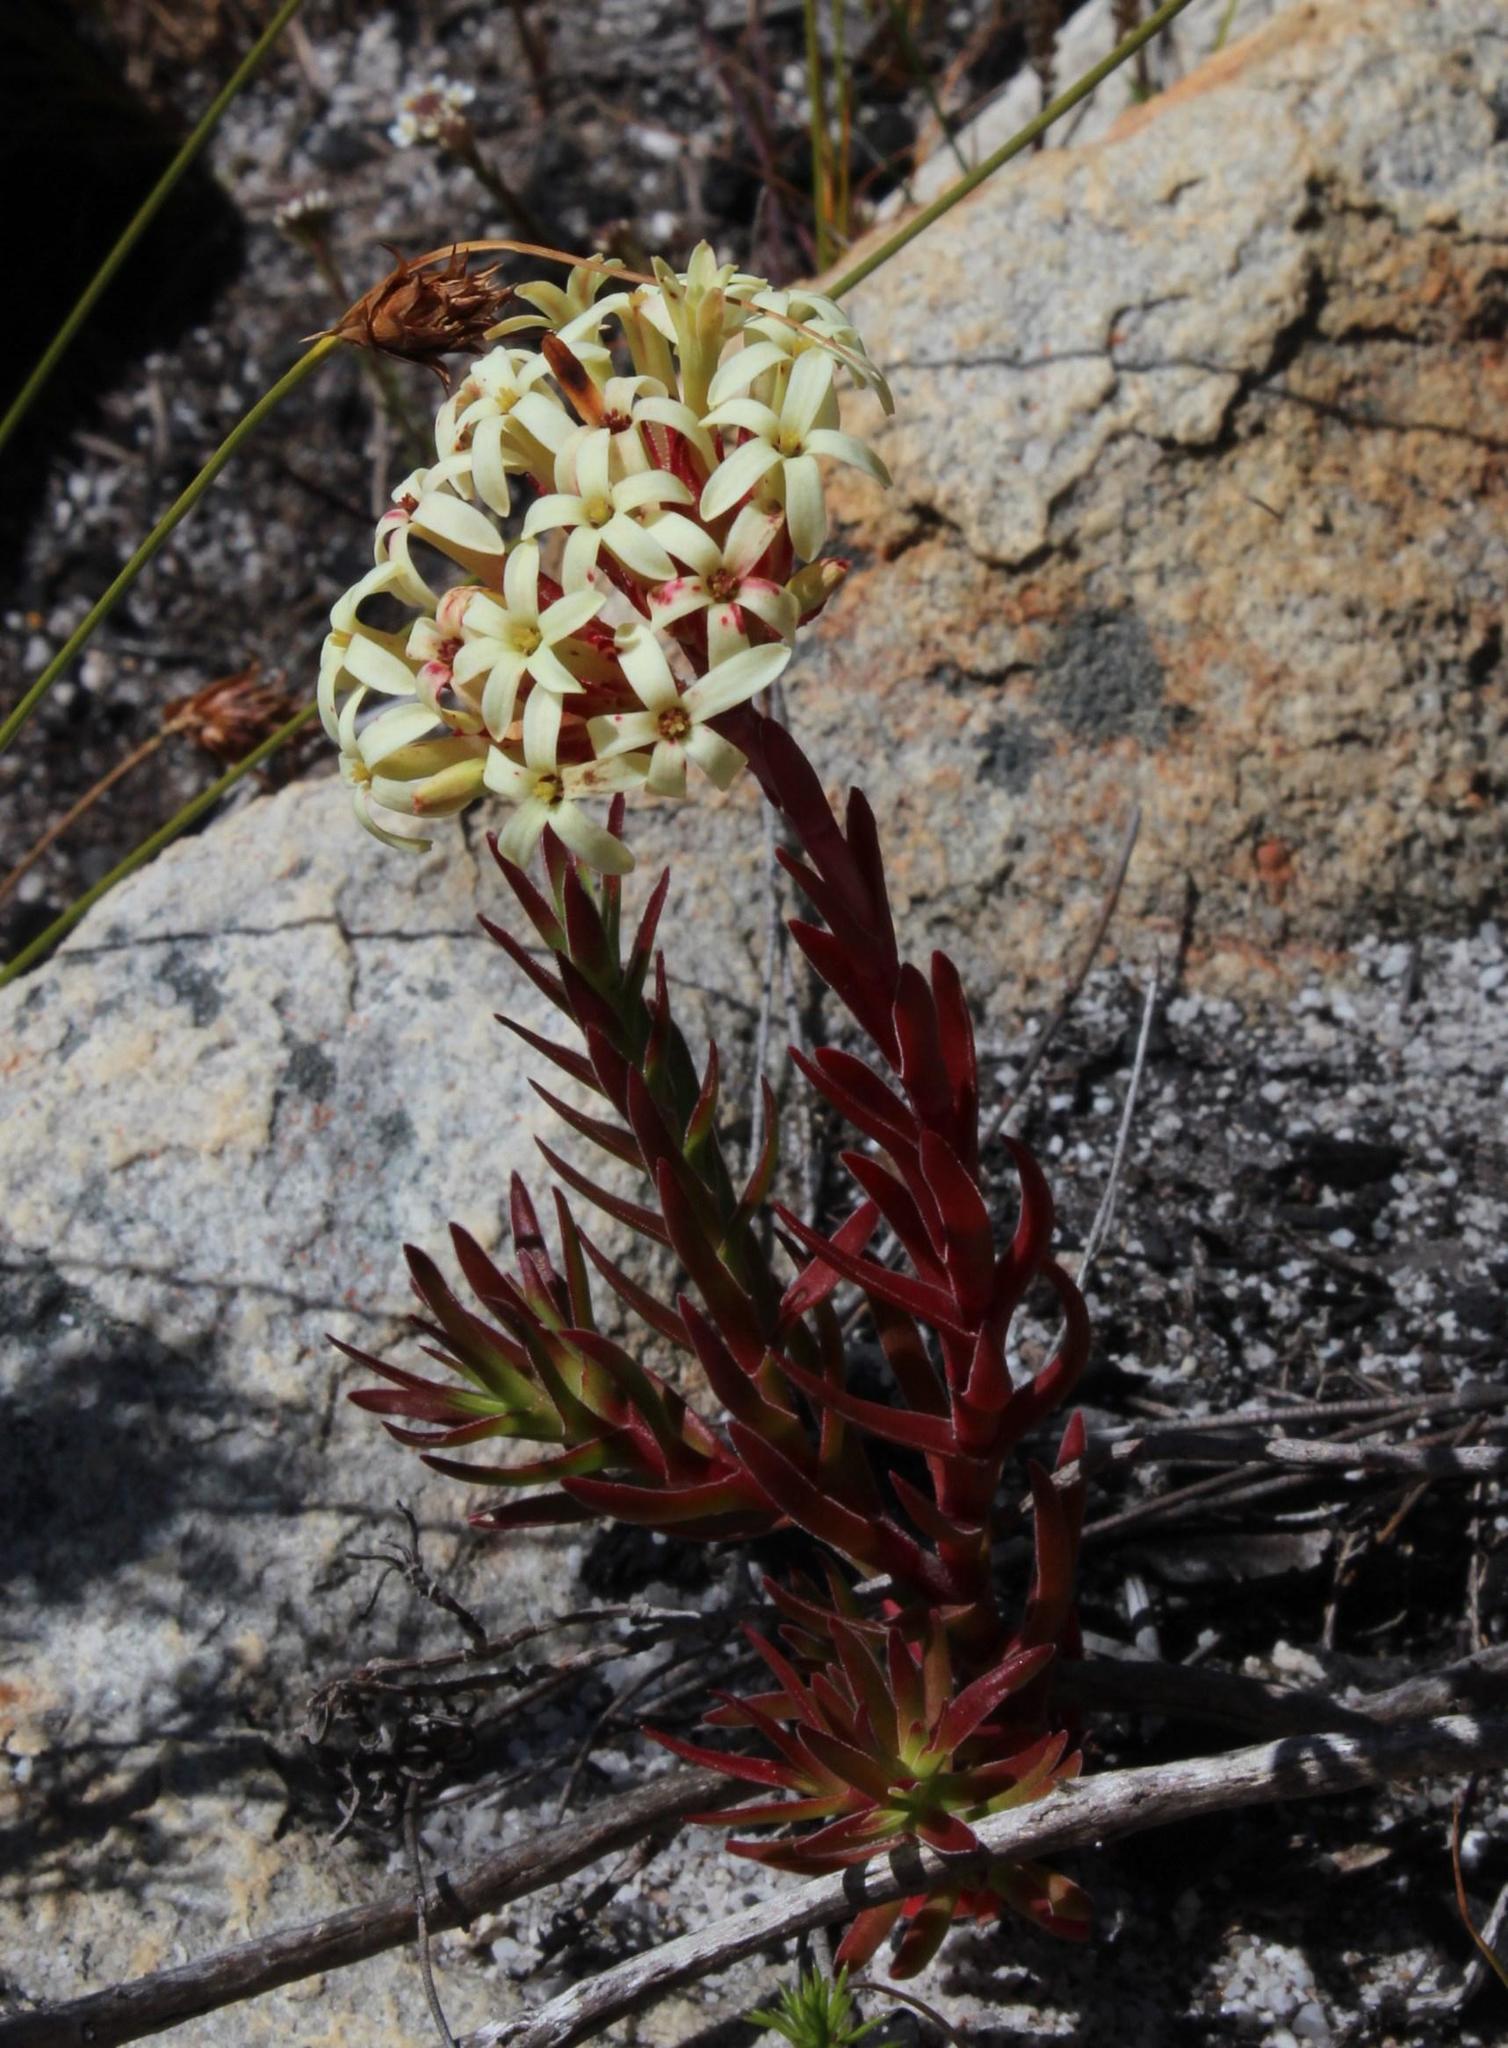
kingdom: Plantae
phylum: Tracheophyta
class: Magnoliopsida
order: Saxifragales
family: Crassulaceae
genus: Crassula
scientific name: Crassula fascicularis
